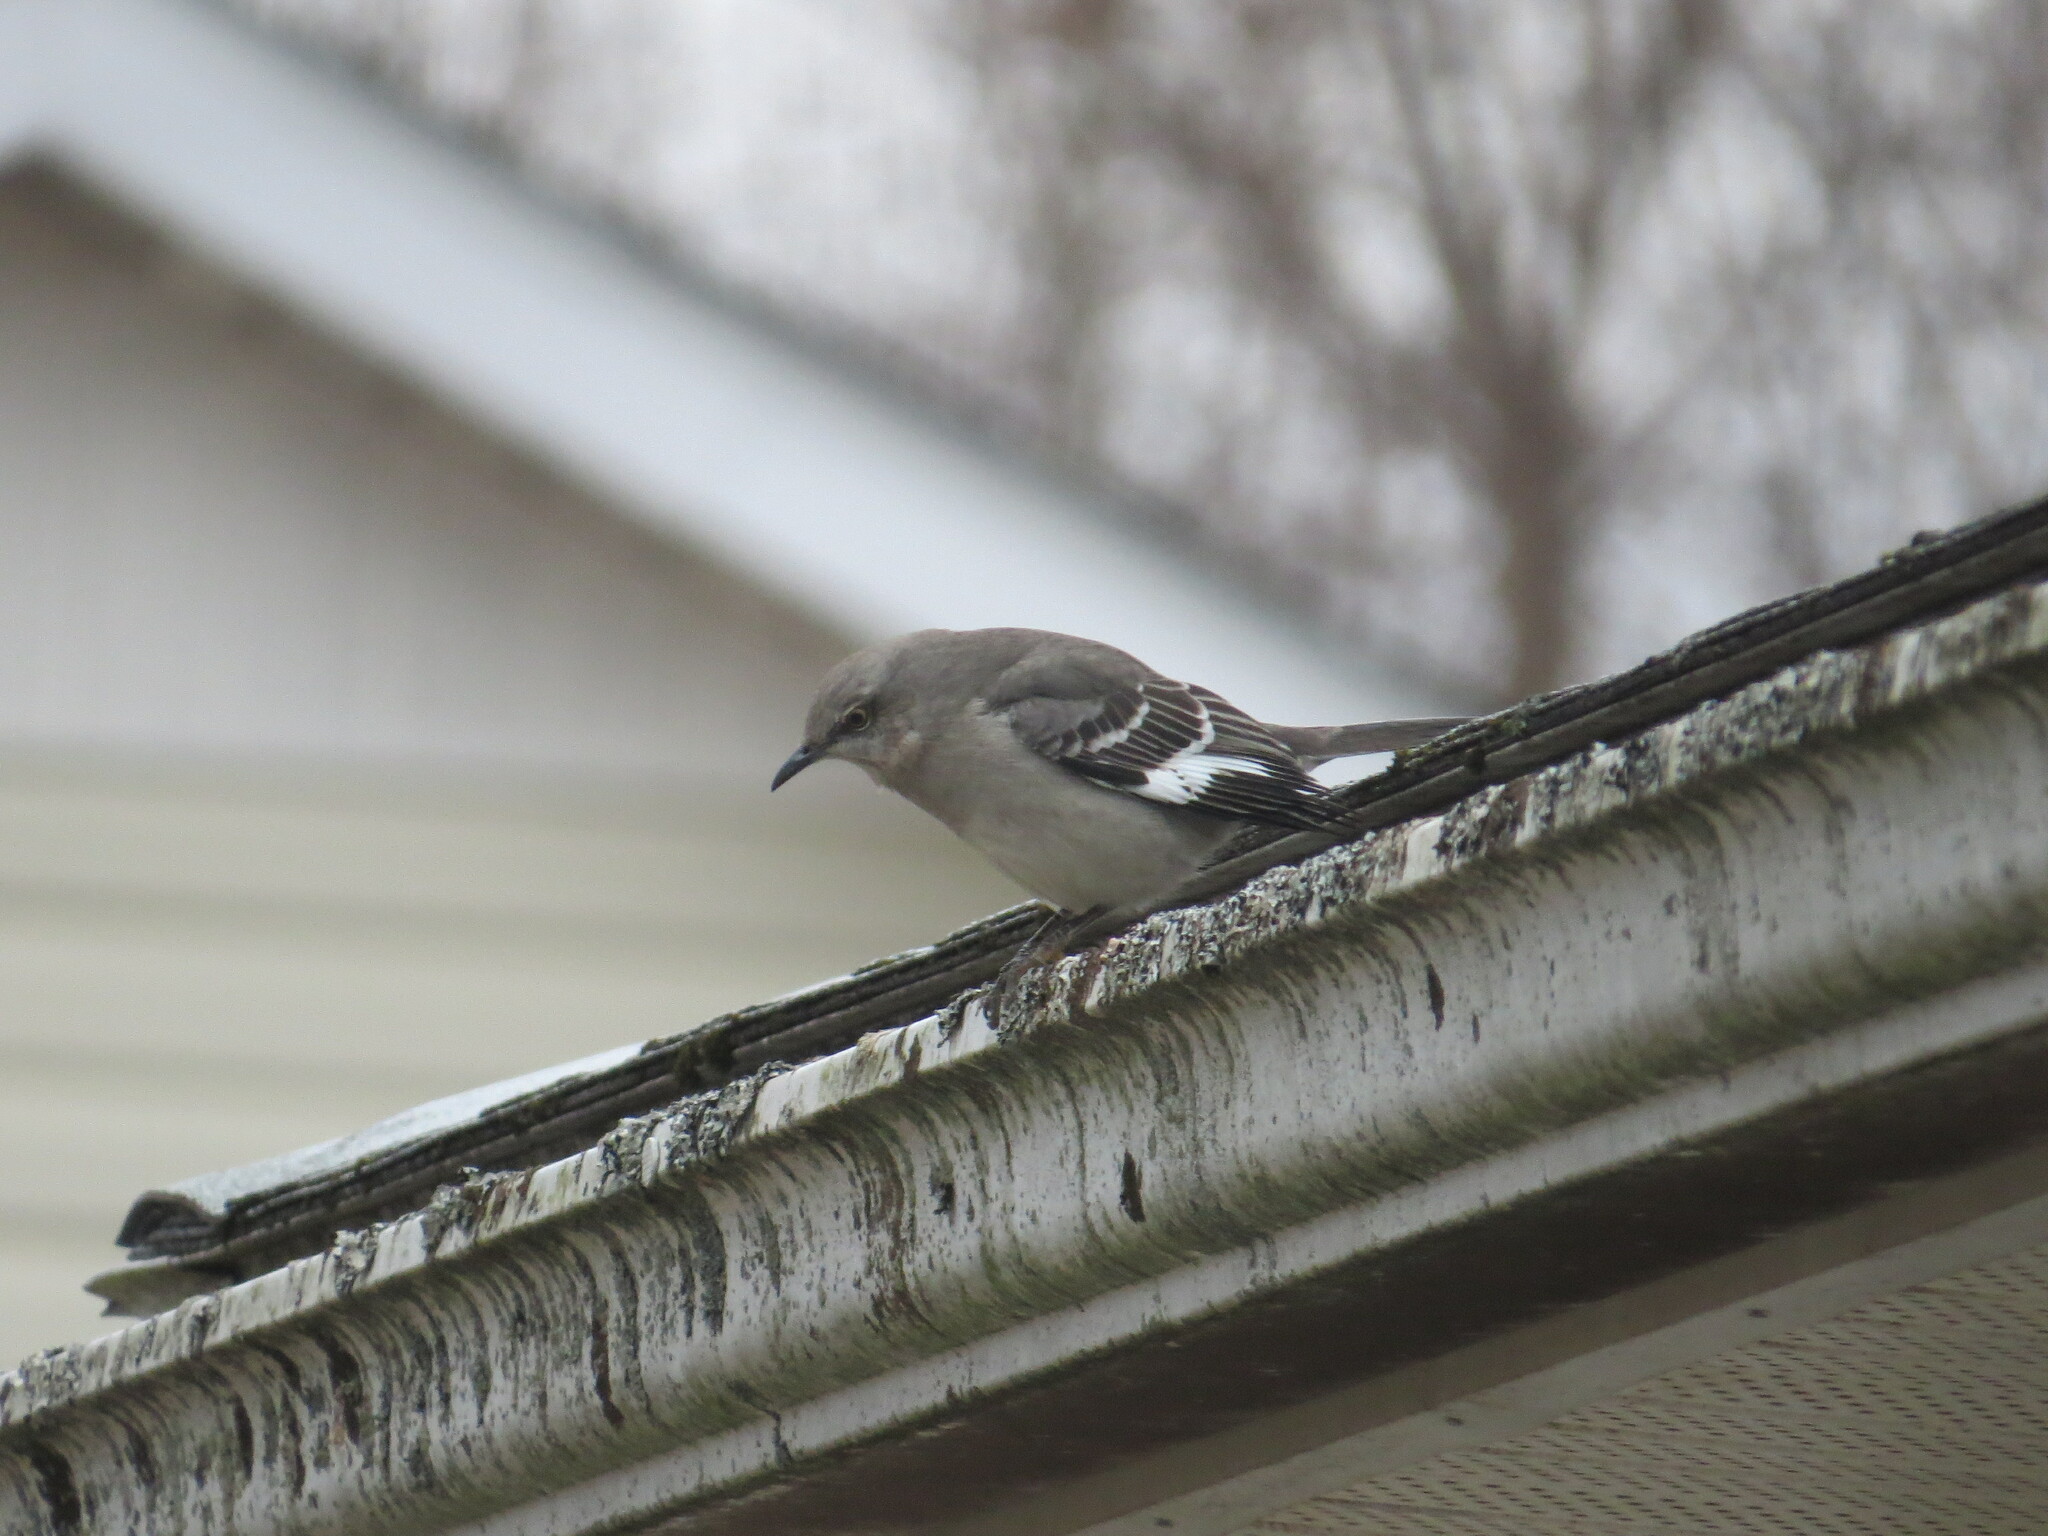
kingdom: Animalia
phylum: Chordata
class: Aves
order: Passeriformes
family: Mimidae
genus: Mimus
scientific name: Mimus polyglottos
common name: Northern mockingbird
